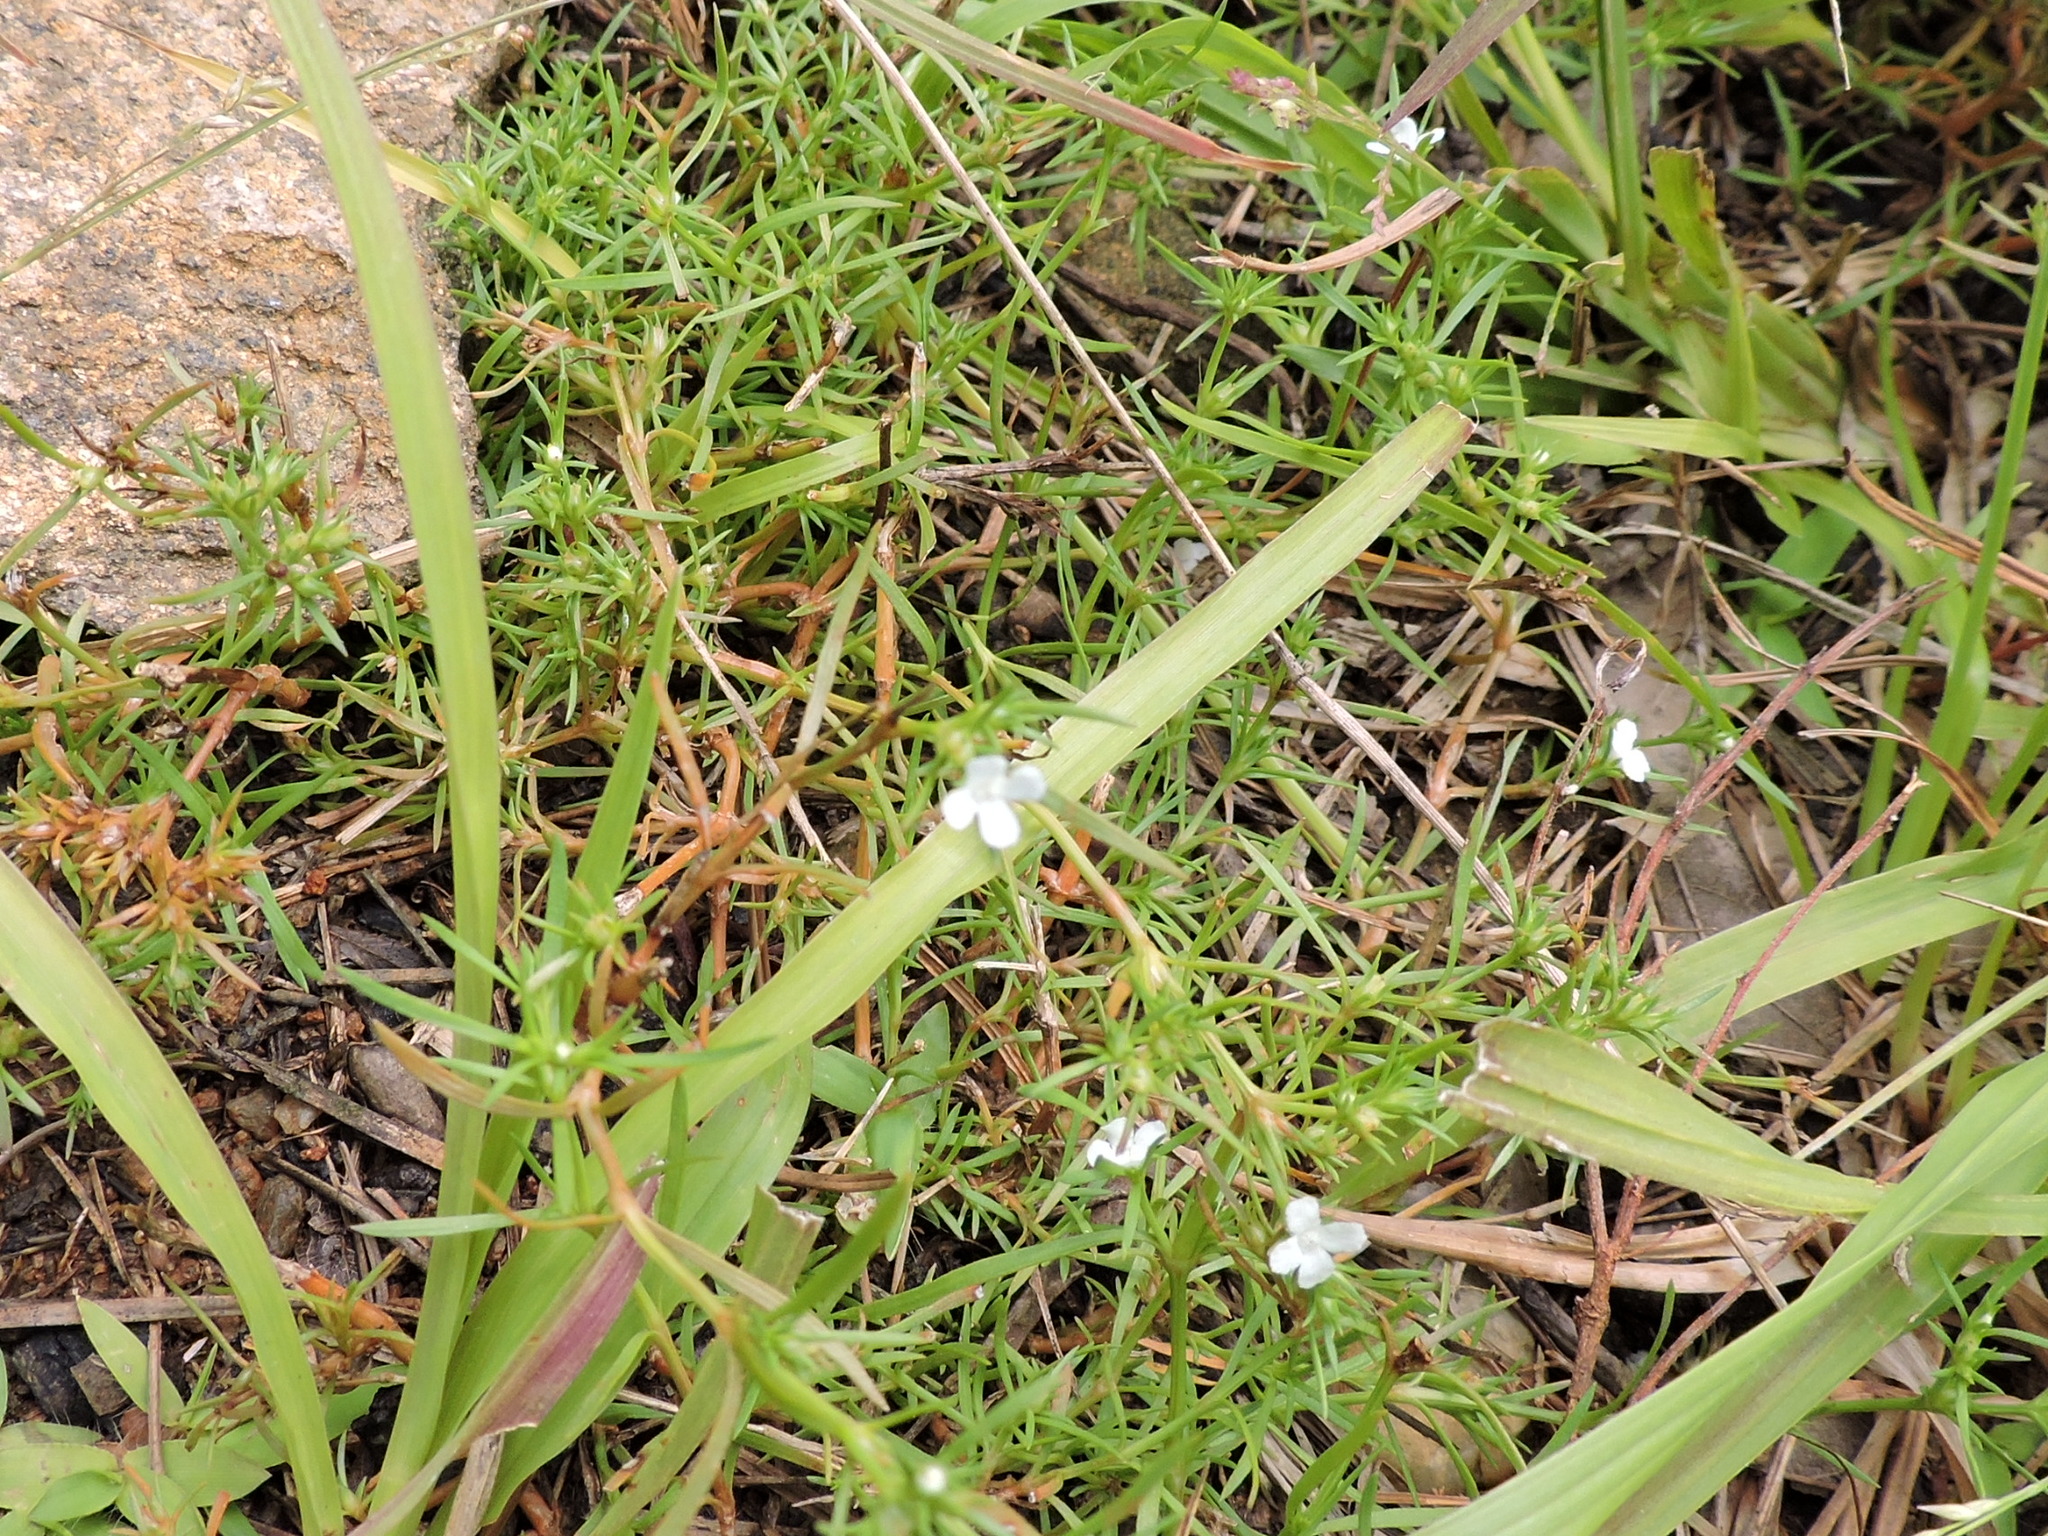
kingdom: Plantae
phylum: Tracheophyta
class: Magnoliopsida
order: Lamiales
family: Tetrachondraceae
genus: Polypremum
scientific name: Polypremum procumbens
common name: Juniper-leaf
